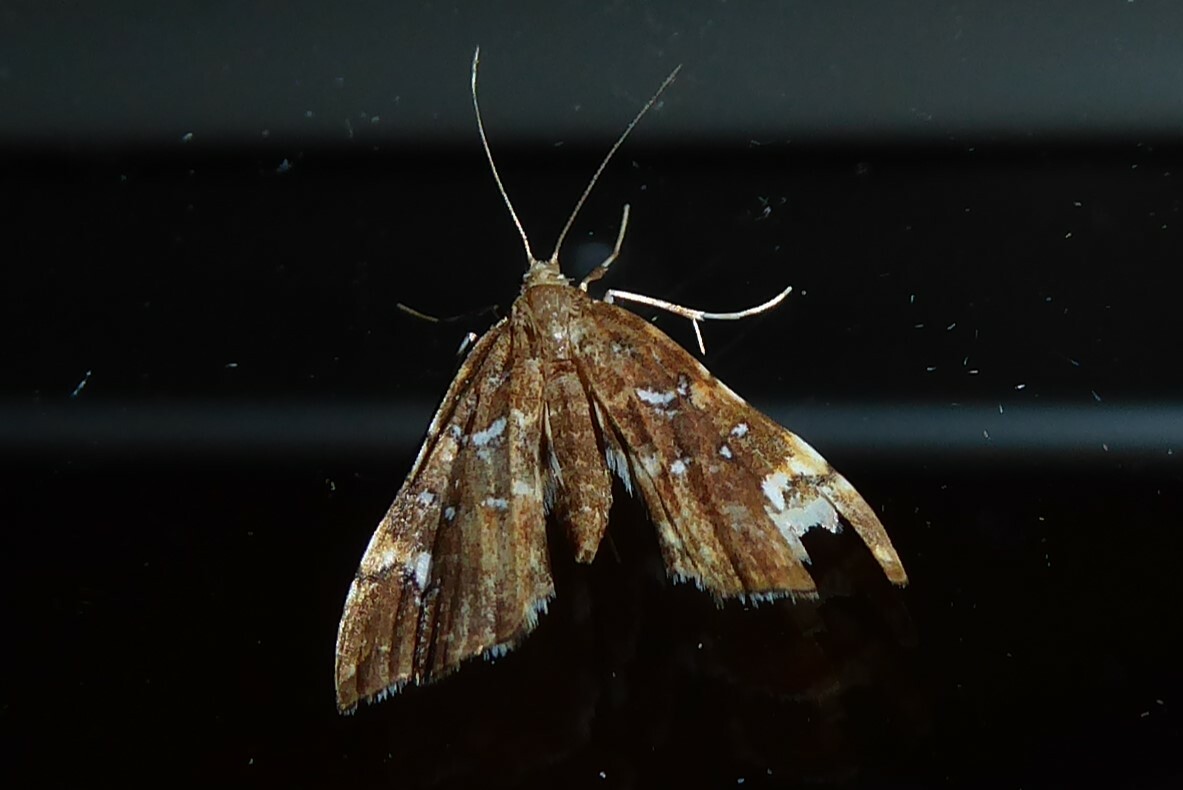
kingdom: Animalia
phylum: Arthropoda
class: Insecta
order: Lepidoptera
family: Pyralidae
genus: Musotima
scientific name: Musotima nitidalis
